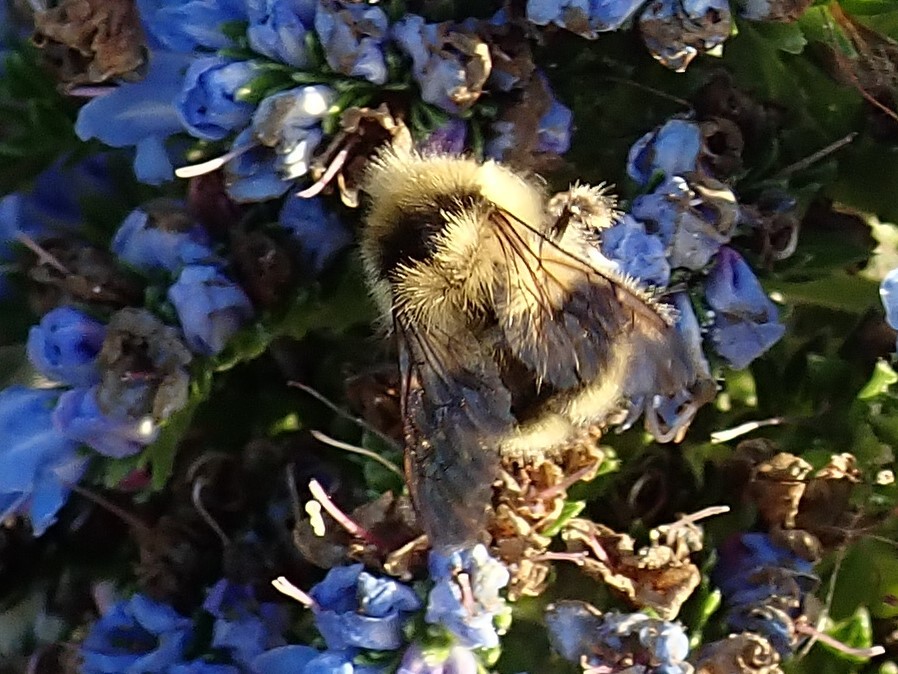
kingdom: Animalia
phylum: Arthropoda
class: Insecta
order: Hymenoptera
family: Apidae
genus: Bombus
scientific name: Bombus melanopygus
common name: Black tail bumble bee
